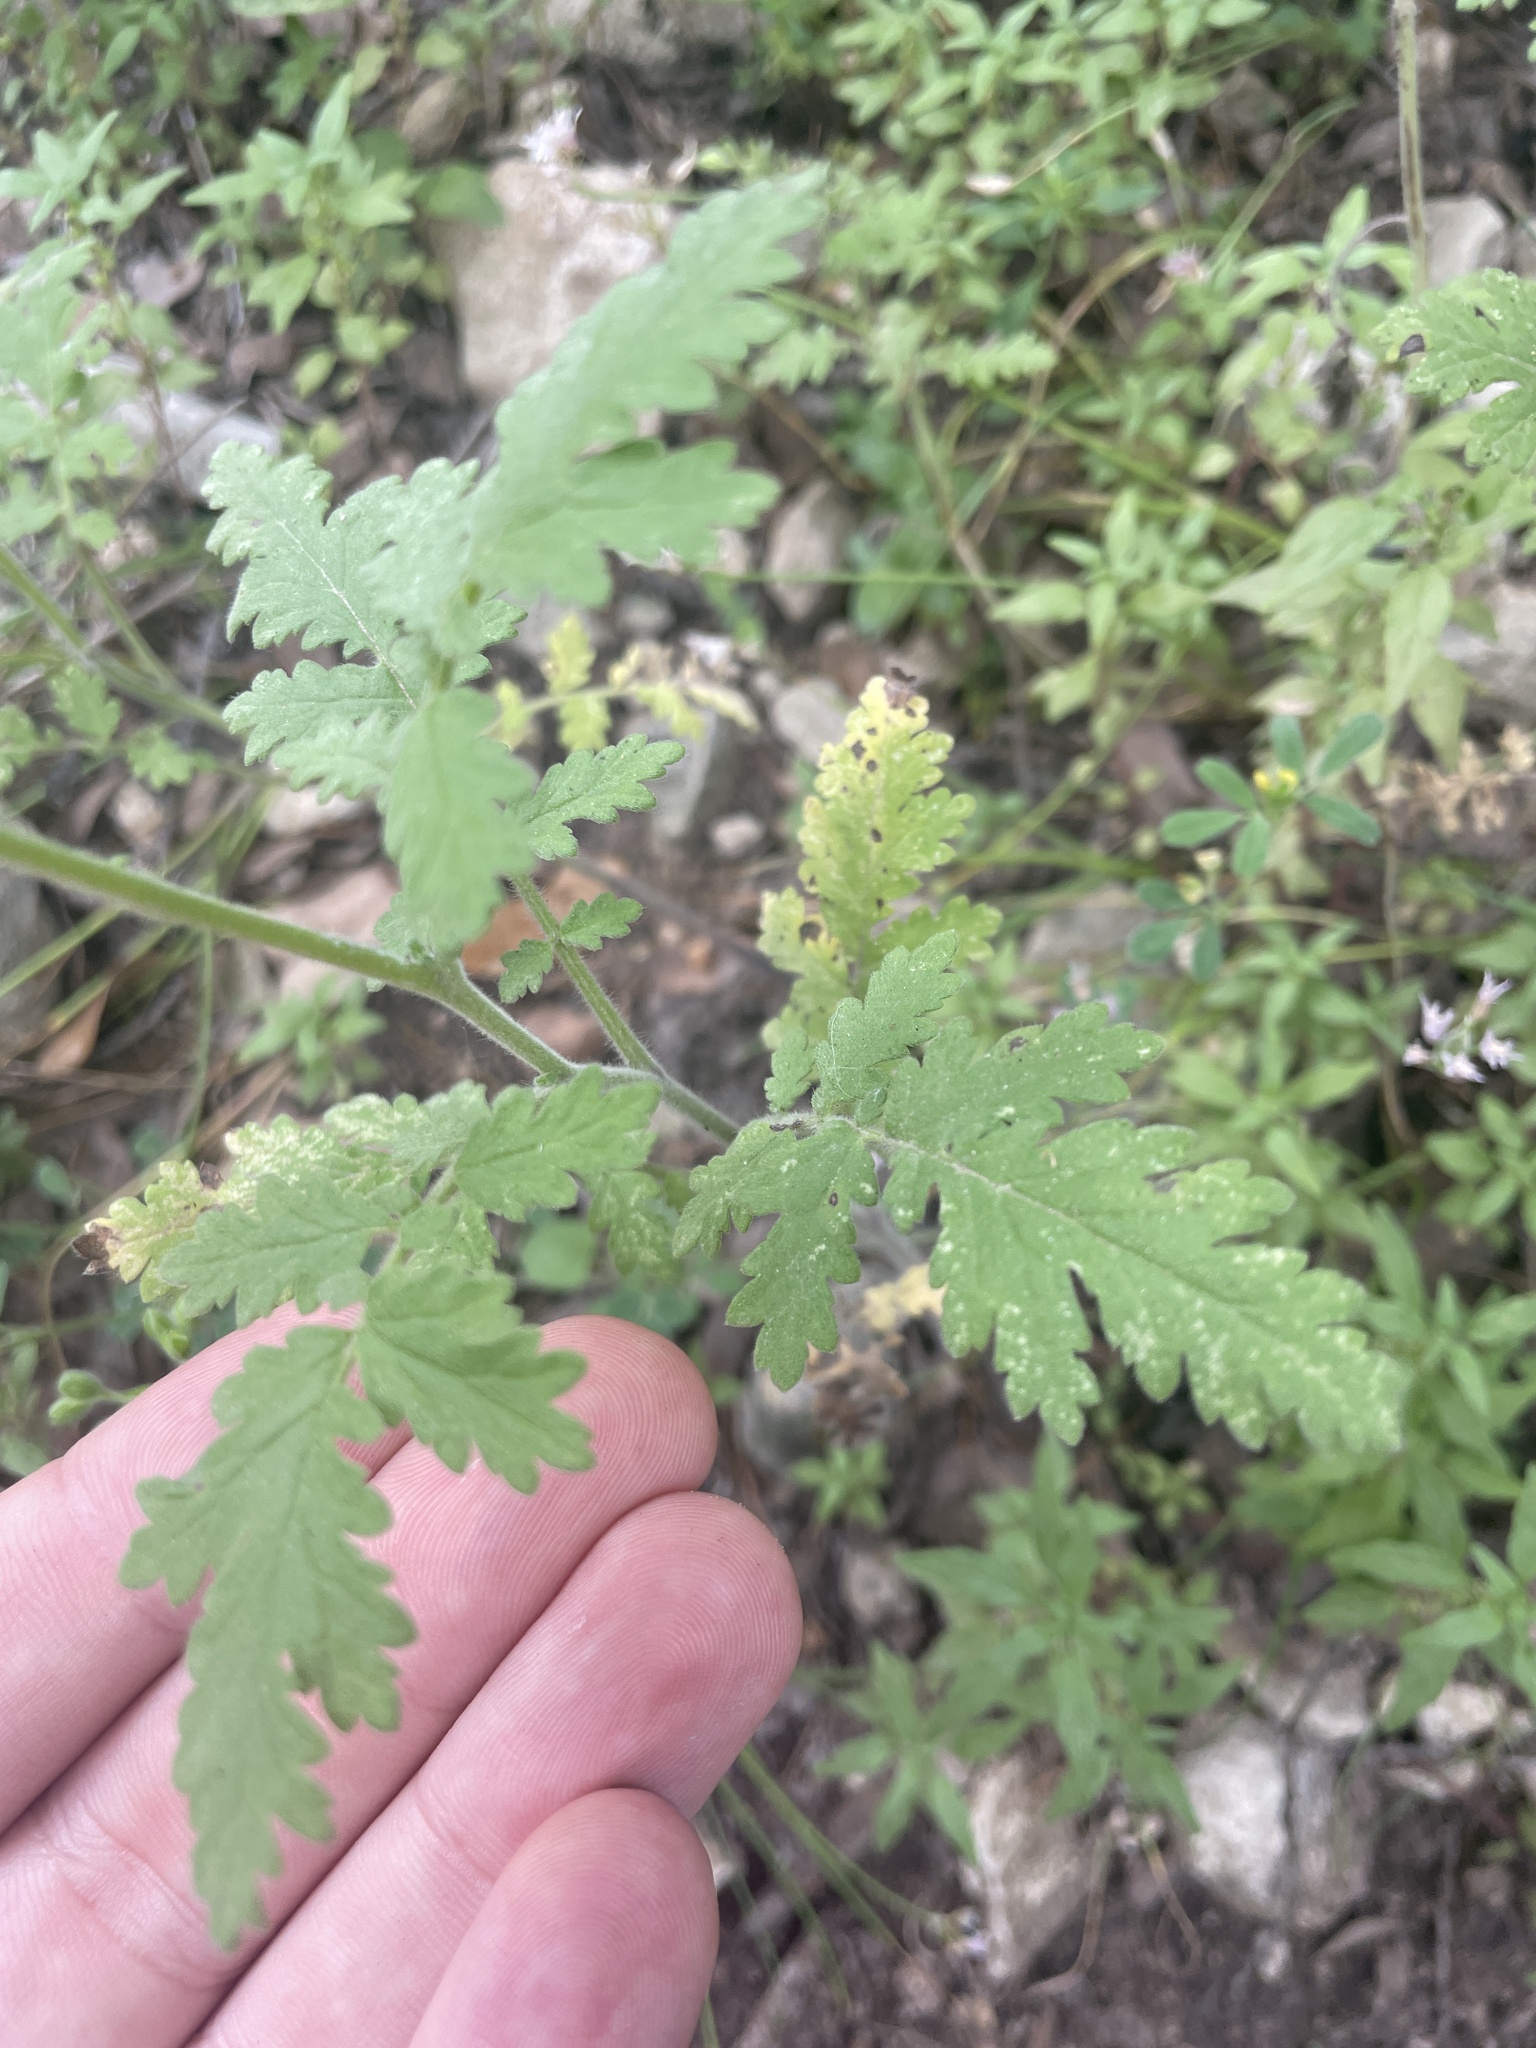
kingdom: Plantae
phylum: Tracheophyta
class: Magnoliopsida
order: Boraginales
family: Hydrophyllaceae
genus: Phacelia
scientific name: Phacelia congesta
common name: Blue curls
